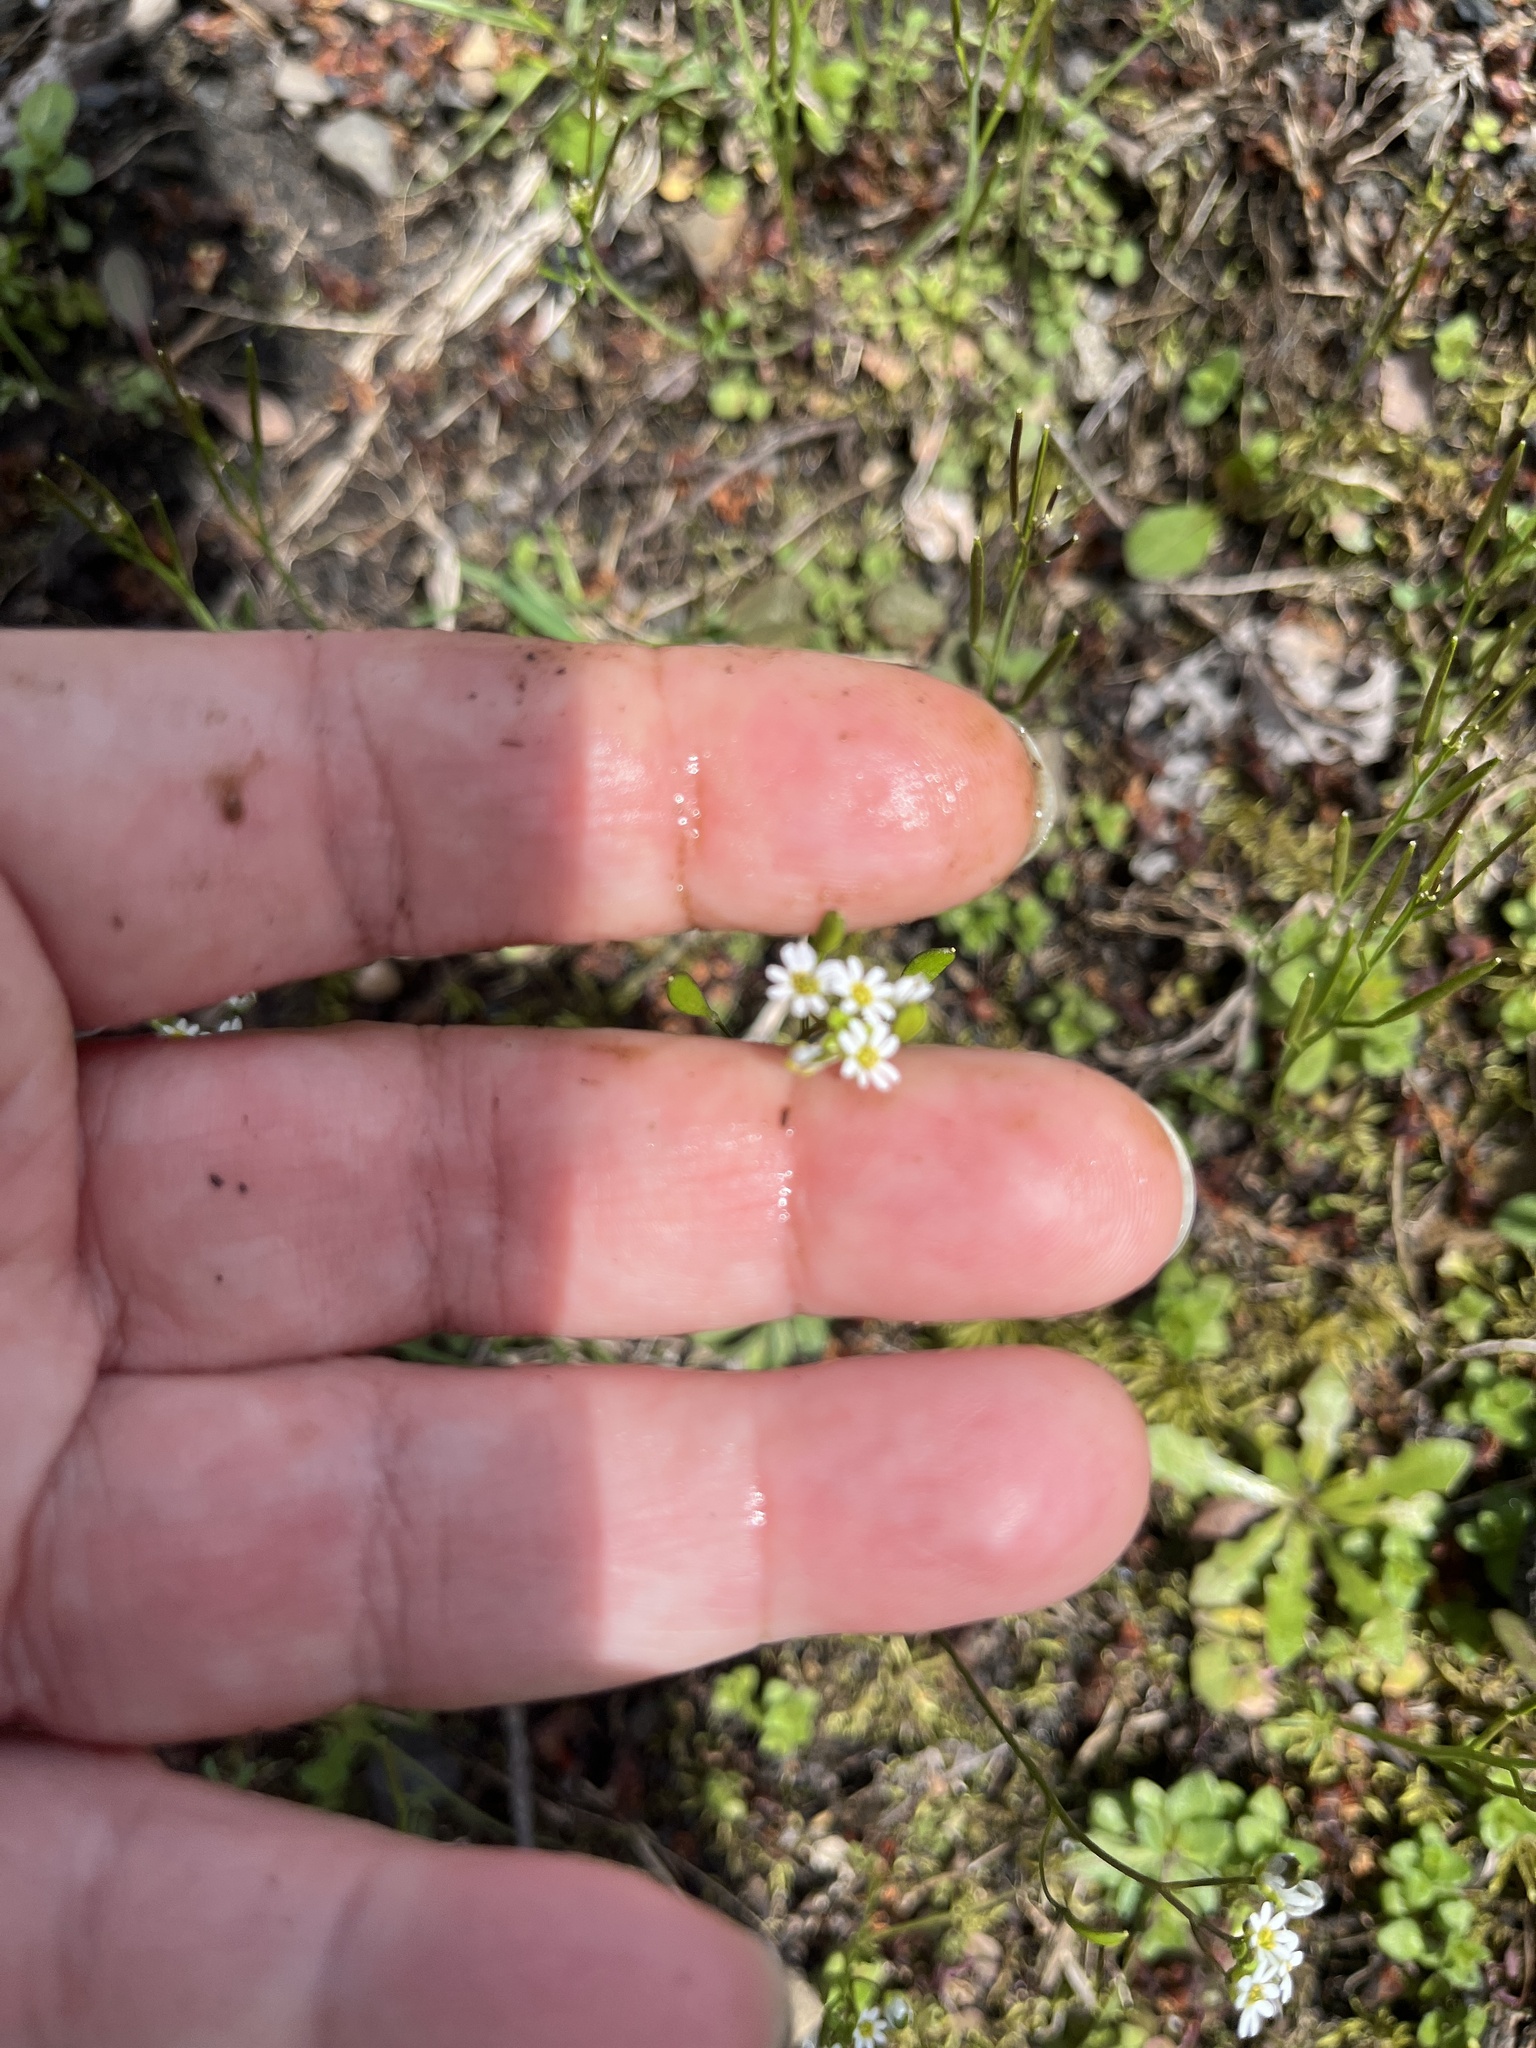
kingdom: Plantae
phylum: Tracheophyta
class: Magnoliopsida
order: Brassicales
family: Brassicaceae
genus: Draba
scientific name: Draba verna
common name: Spring draba
